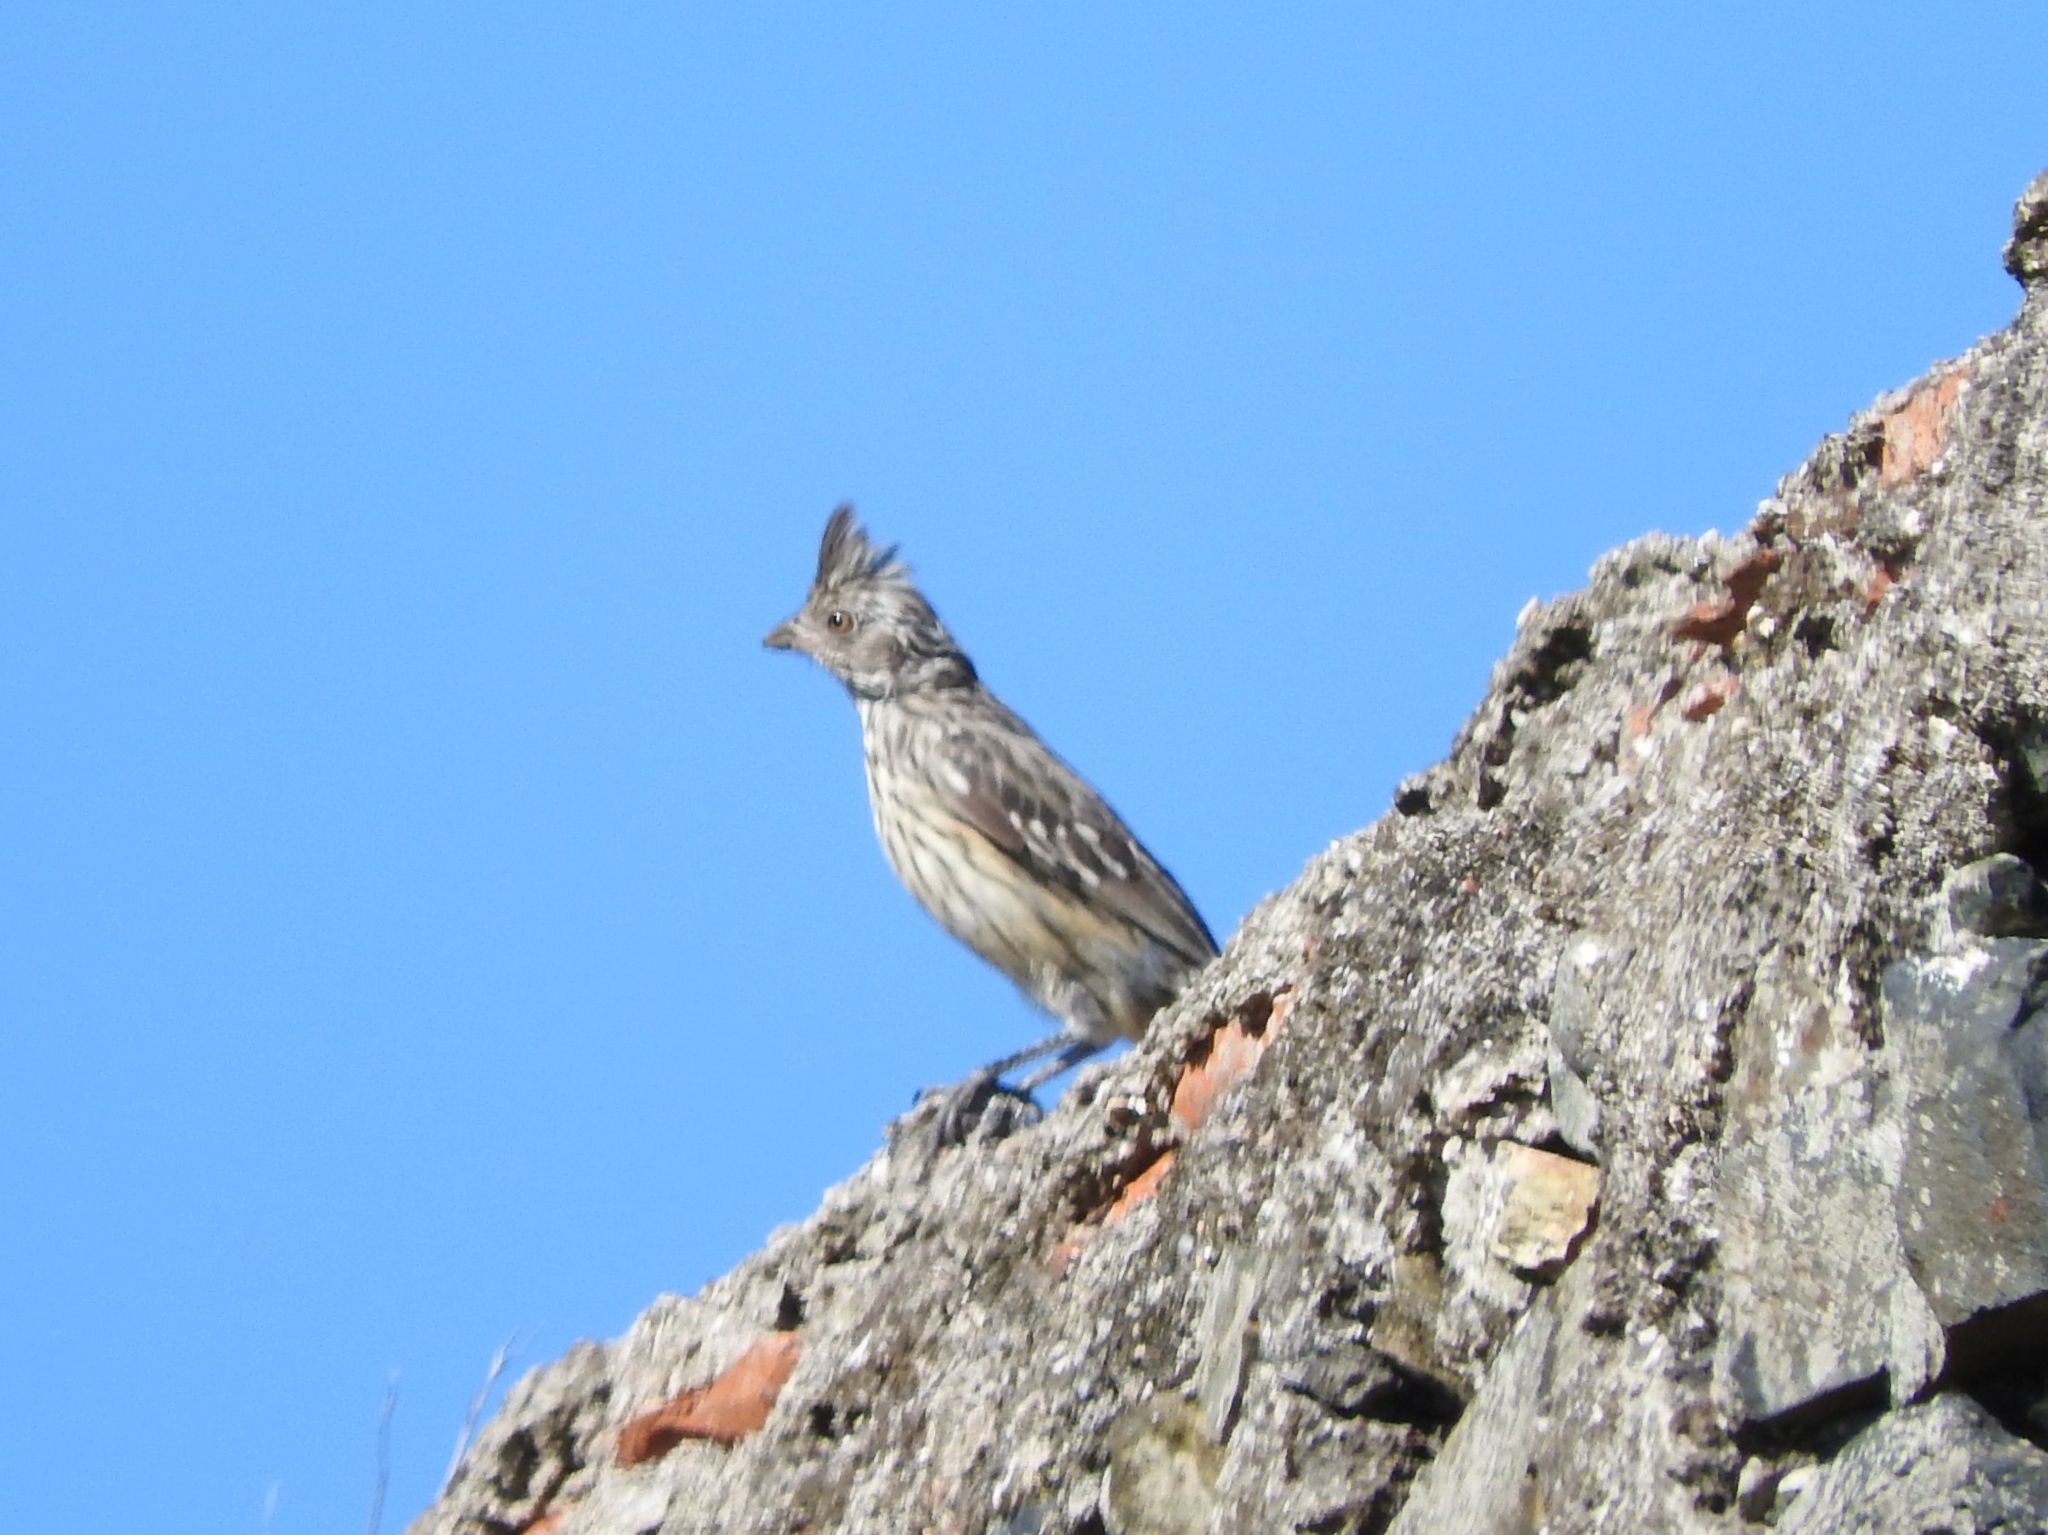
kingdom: Animalia
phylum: Chordata
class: Aves
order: Passeriformes
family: Cotingidae
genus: Phytotoma
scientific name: Phytotoma rutila
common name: White-tipped plantcutter
